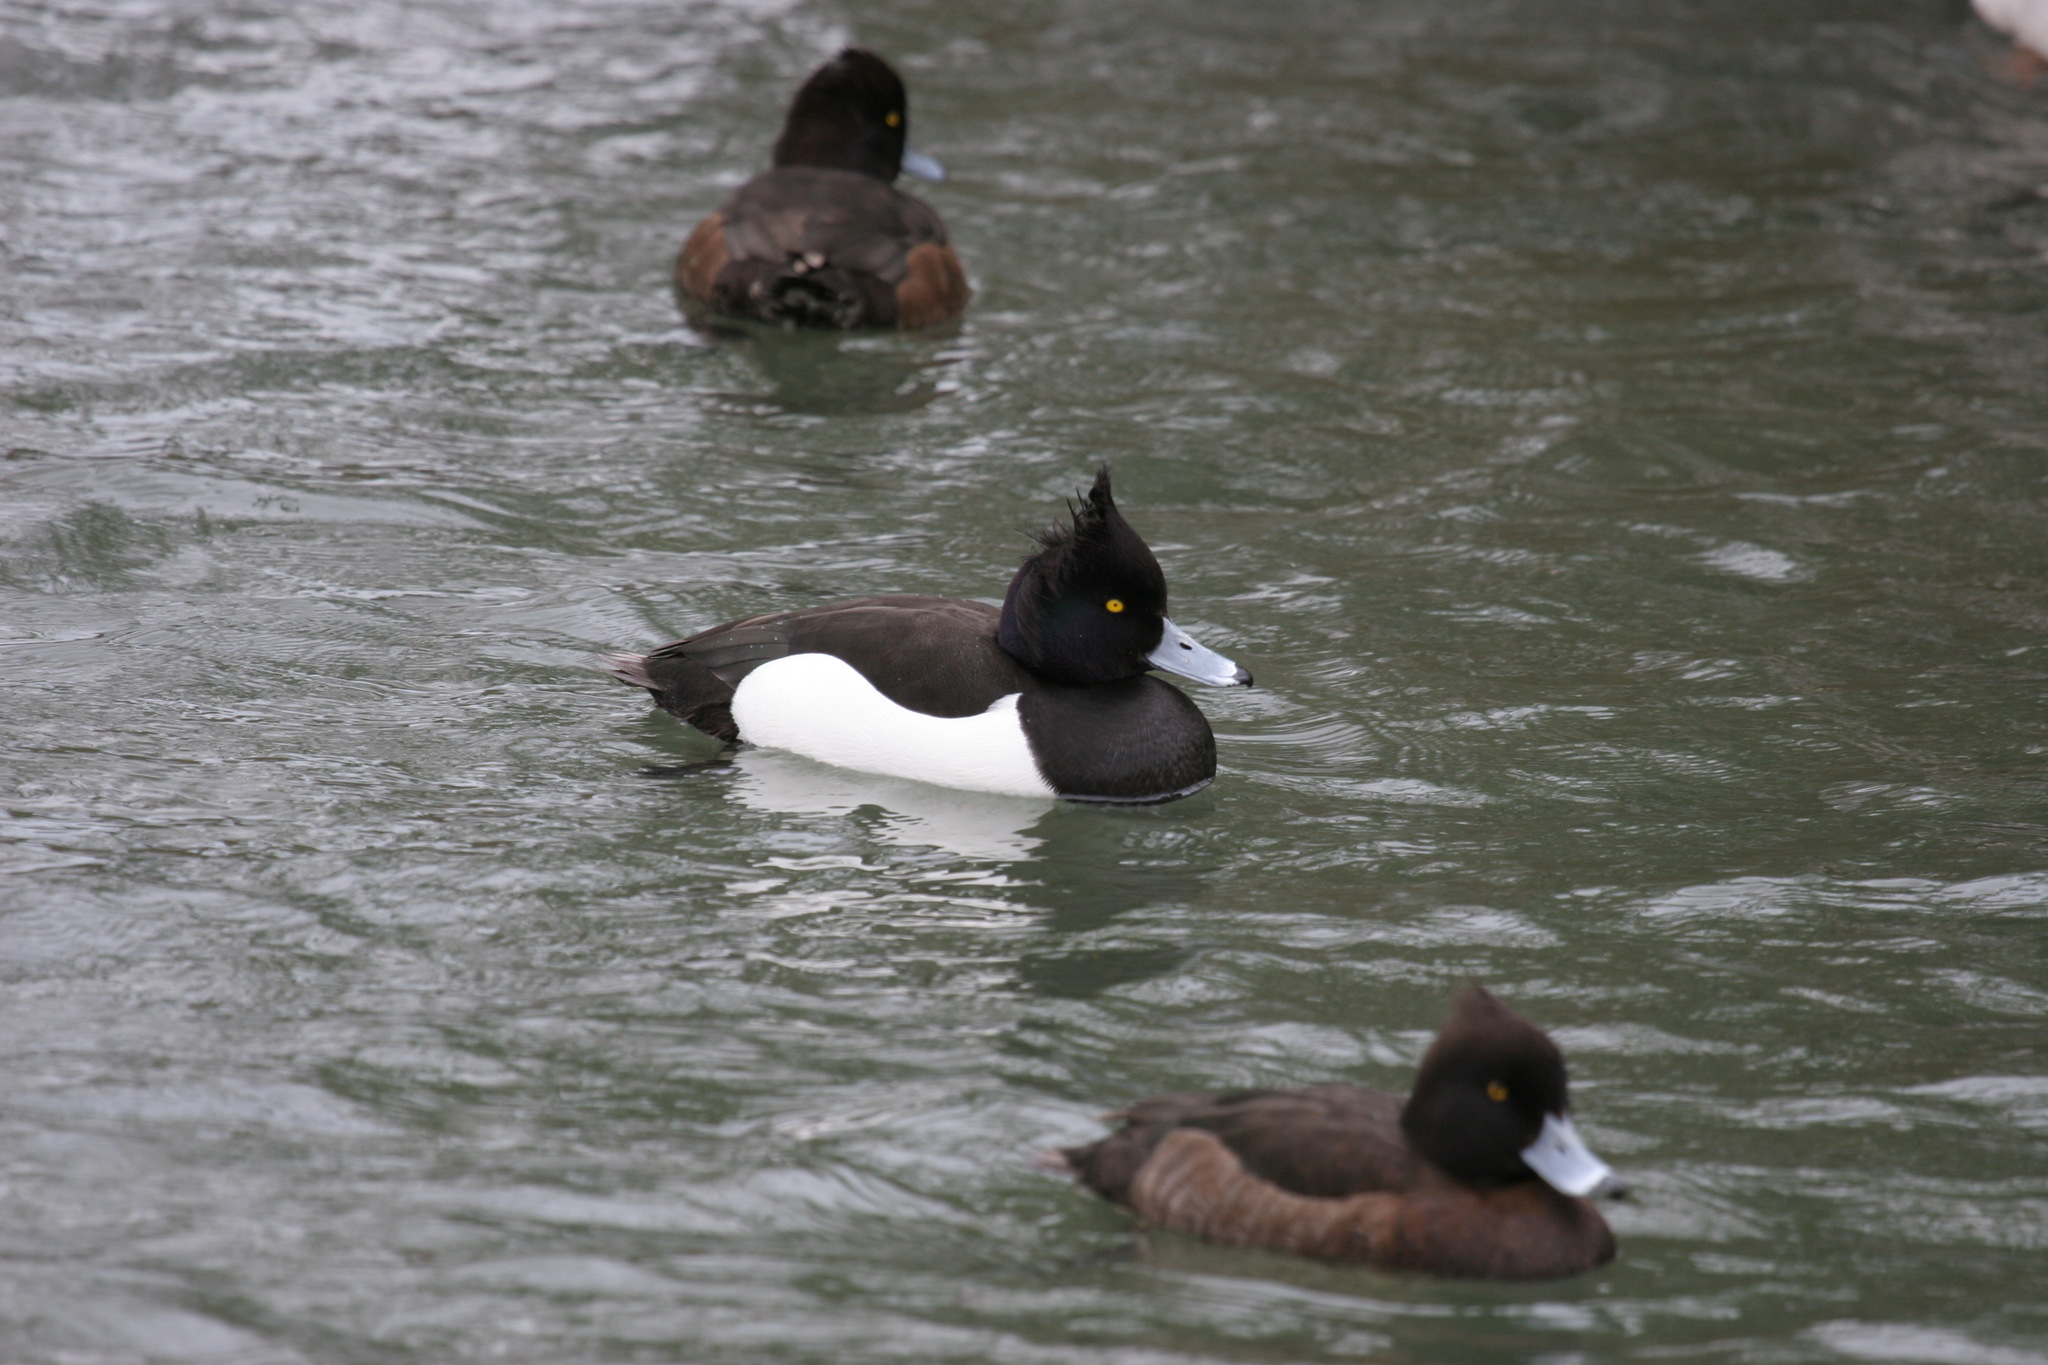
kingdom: Animalia
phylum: Chordata
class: Aves
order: Anseriformes
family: Anatidae
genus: Aythya
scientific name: Aythya fuligula
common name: Tufted duck
